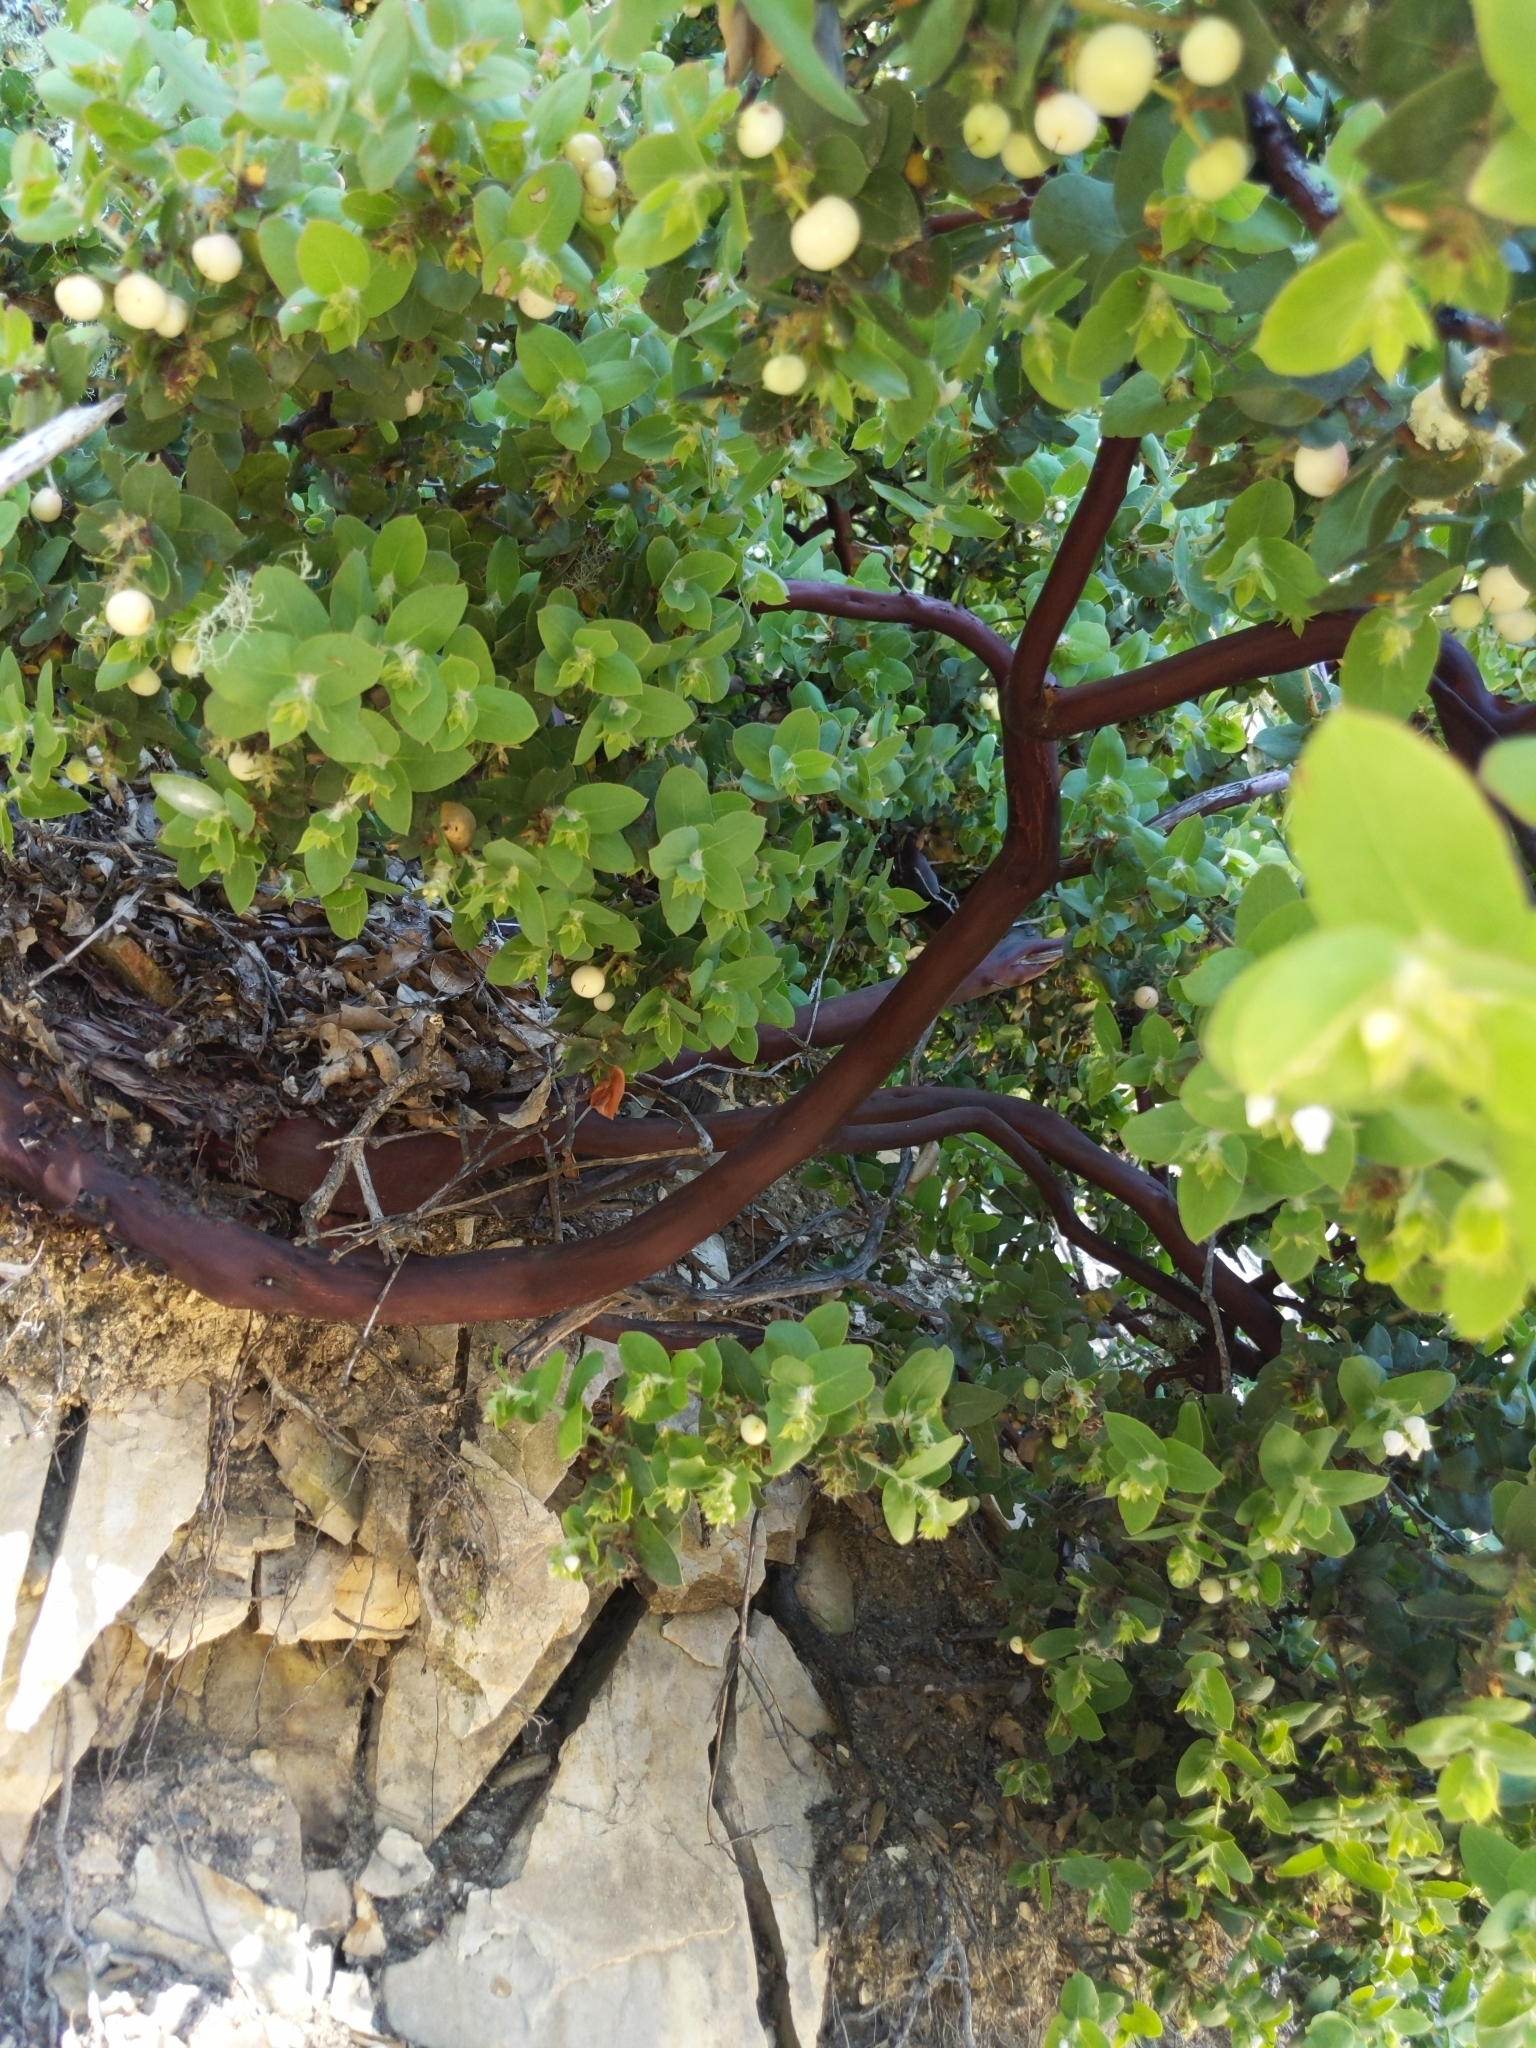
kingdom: Plantae
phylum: Tracheophyta
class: Magnoliopsida
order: Ericales
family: Ericaceae
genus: Arctostaphylos
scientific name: Arctostaphylos pechoensis
